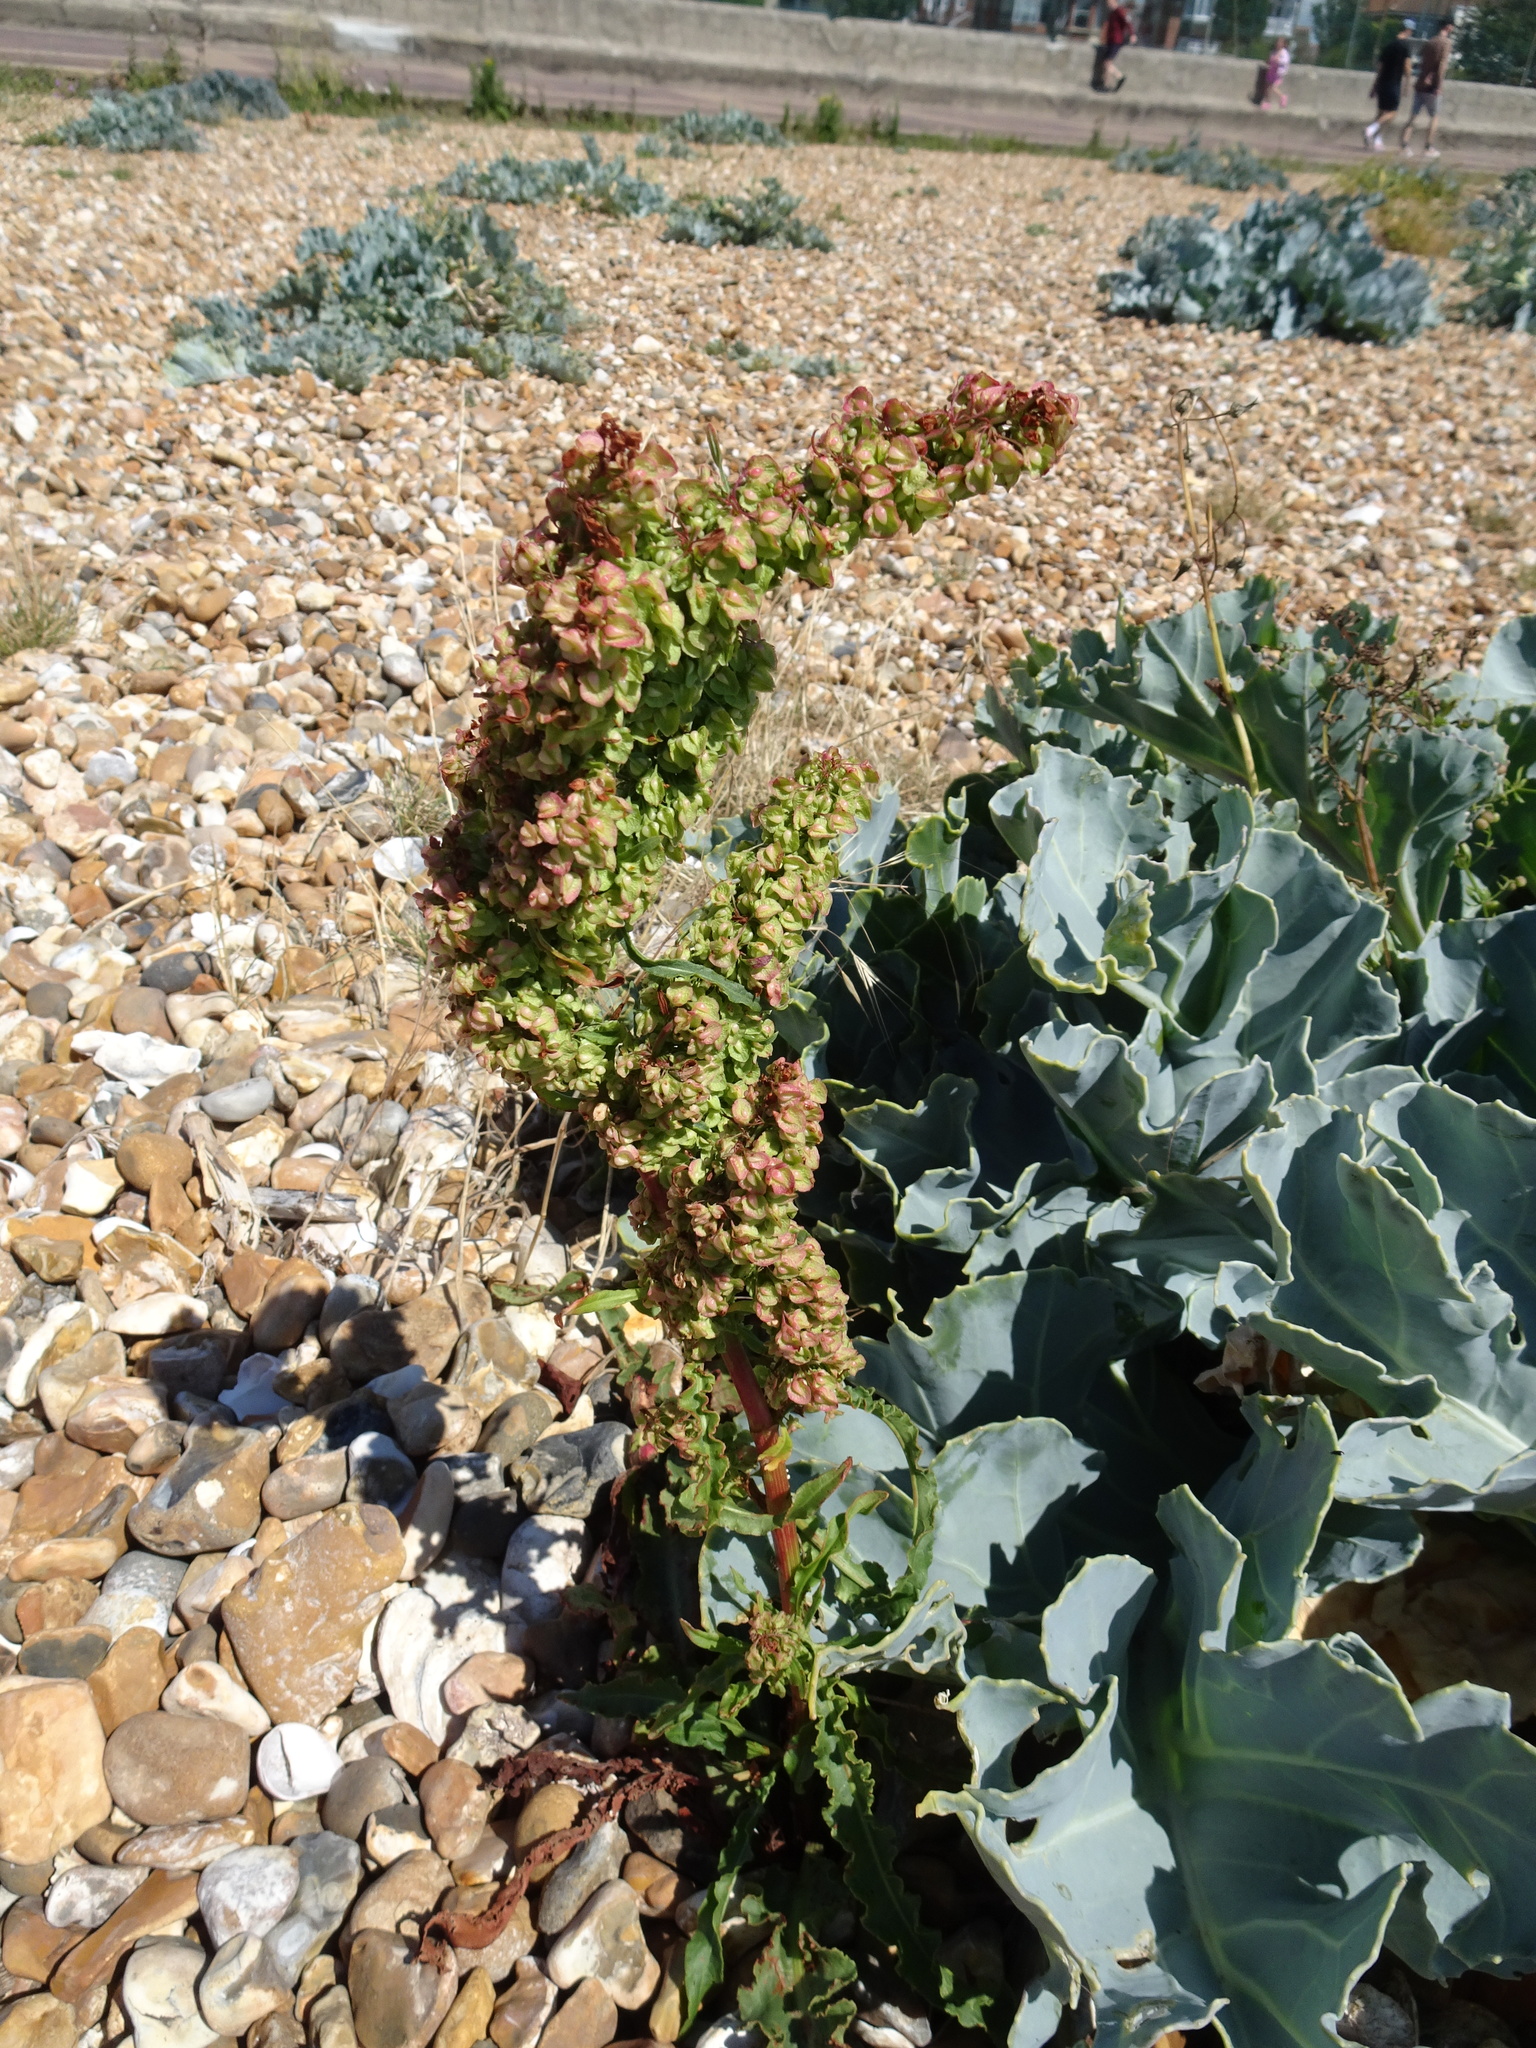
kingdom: Plantae
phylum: Tracheophyta
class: Magnoliopsida
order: Caryophyllales
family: Polygonaceae
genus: Rumex
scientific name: Rumex crispus
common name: Curled dock
